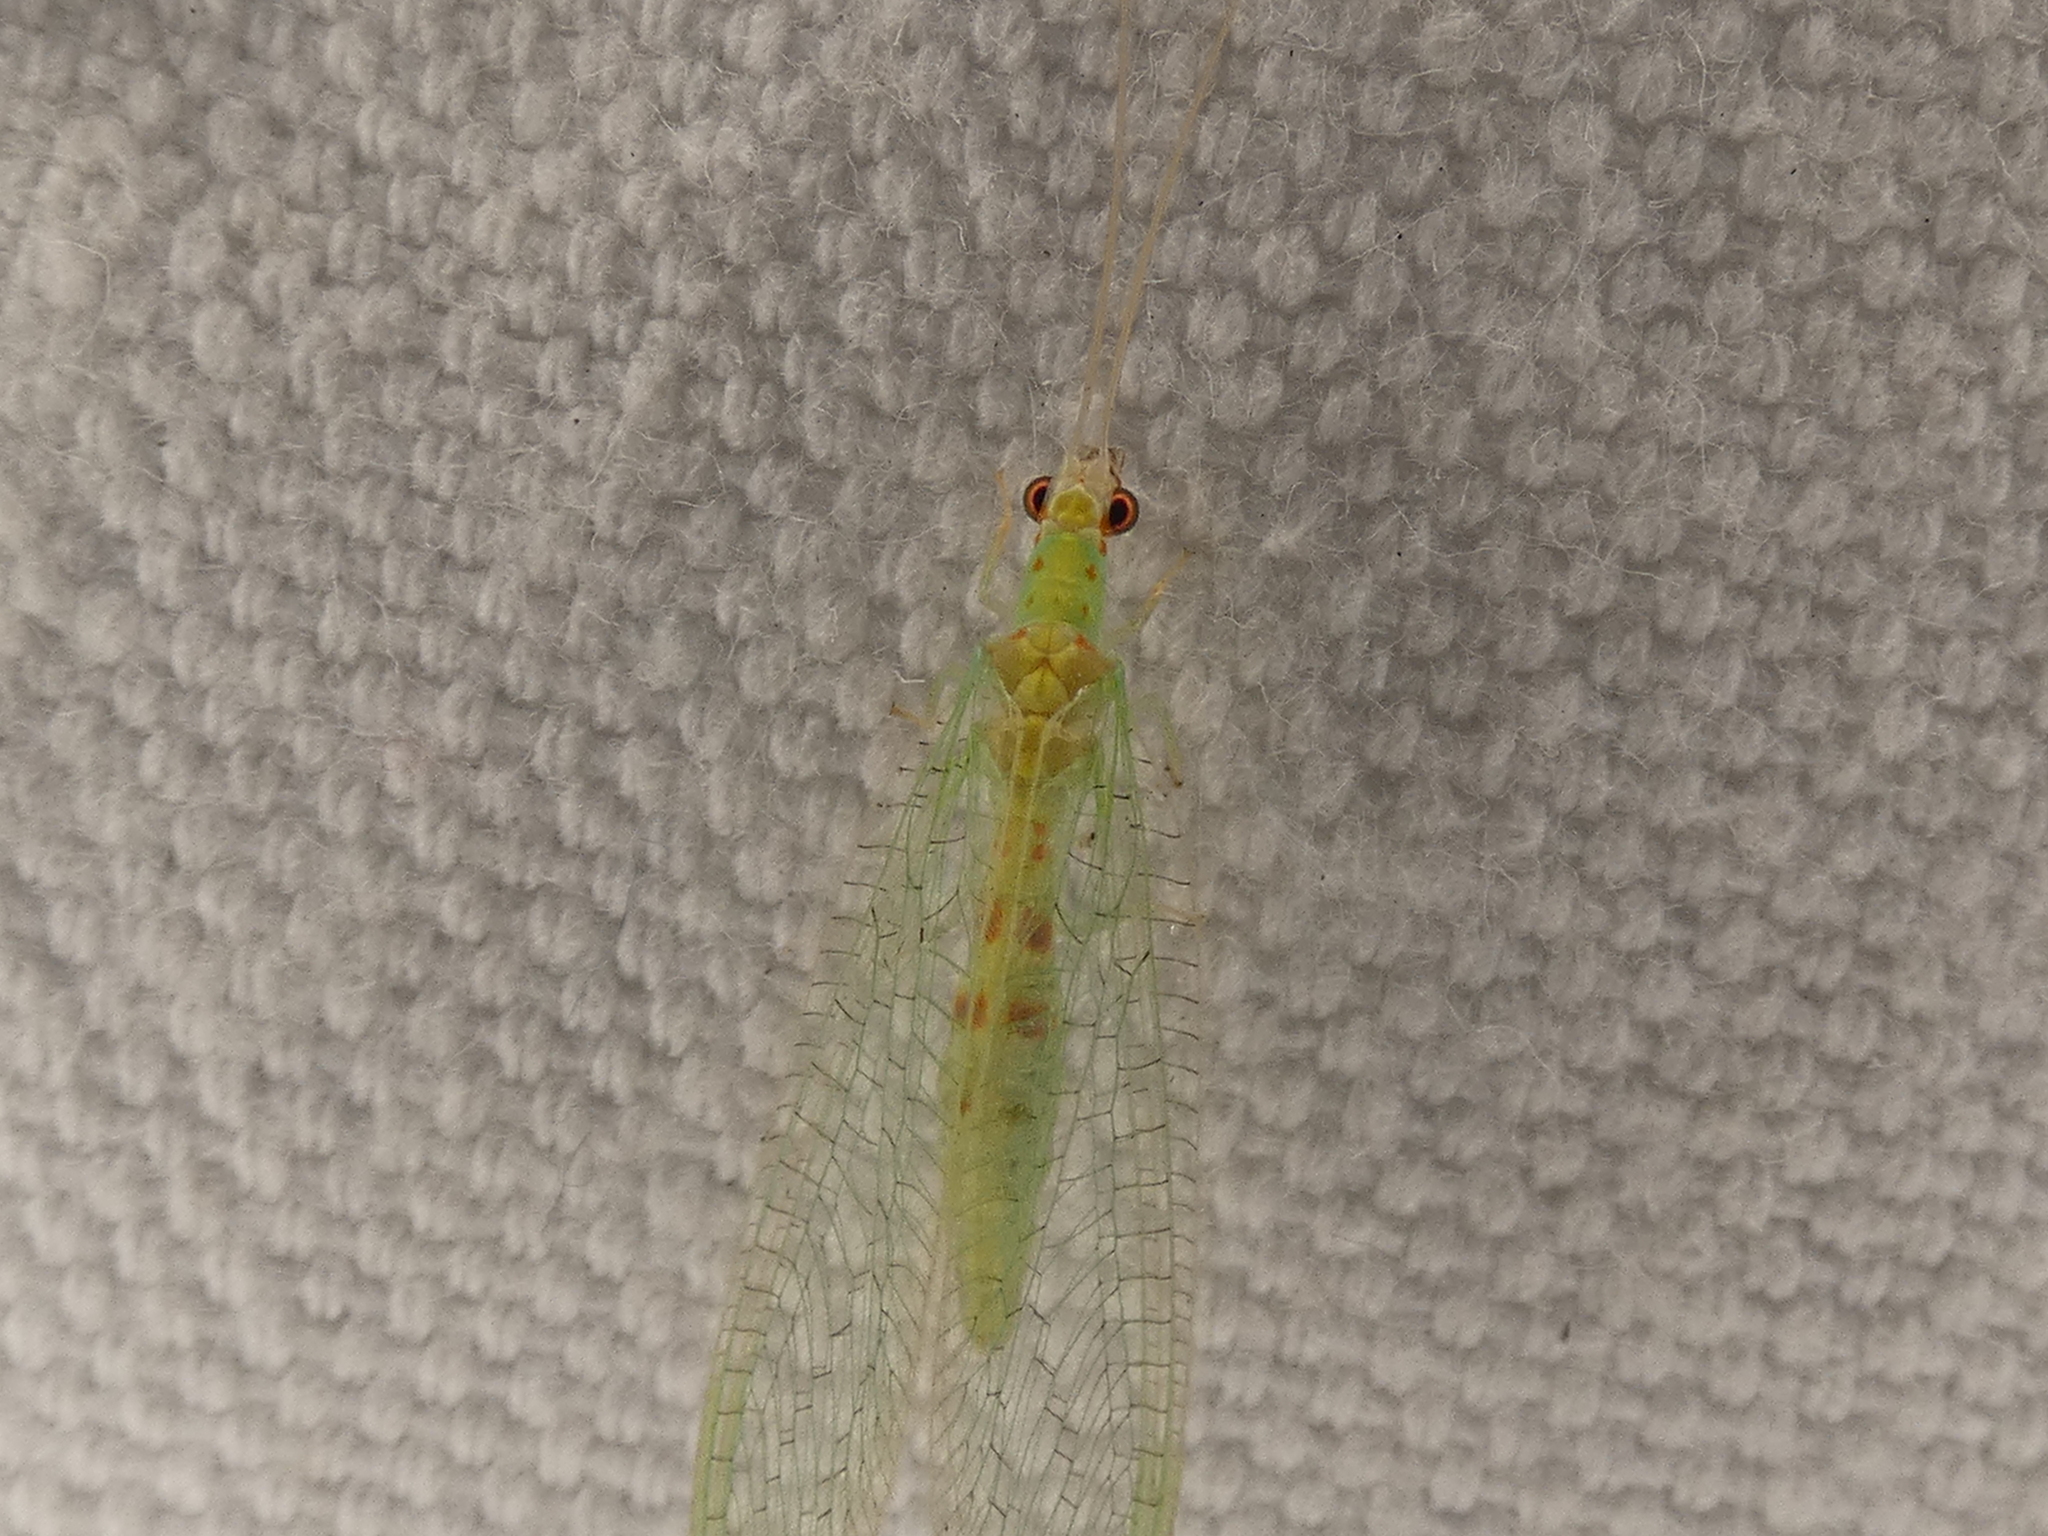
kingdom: Animalia
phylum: Arthropoda
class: Insecta
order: Neuroptera
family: Chrysopidae
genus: Chrysopa
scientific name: Chrysopa quadripunctata
